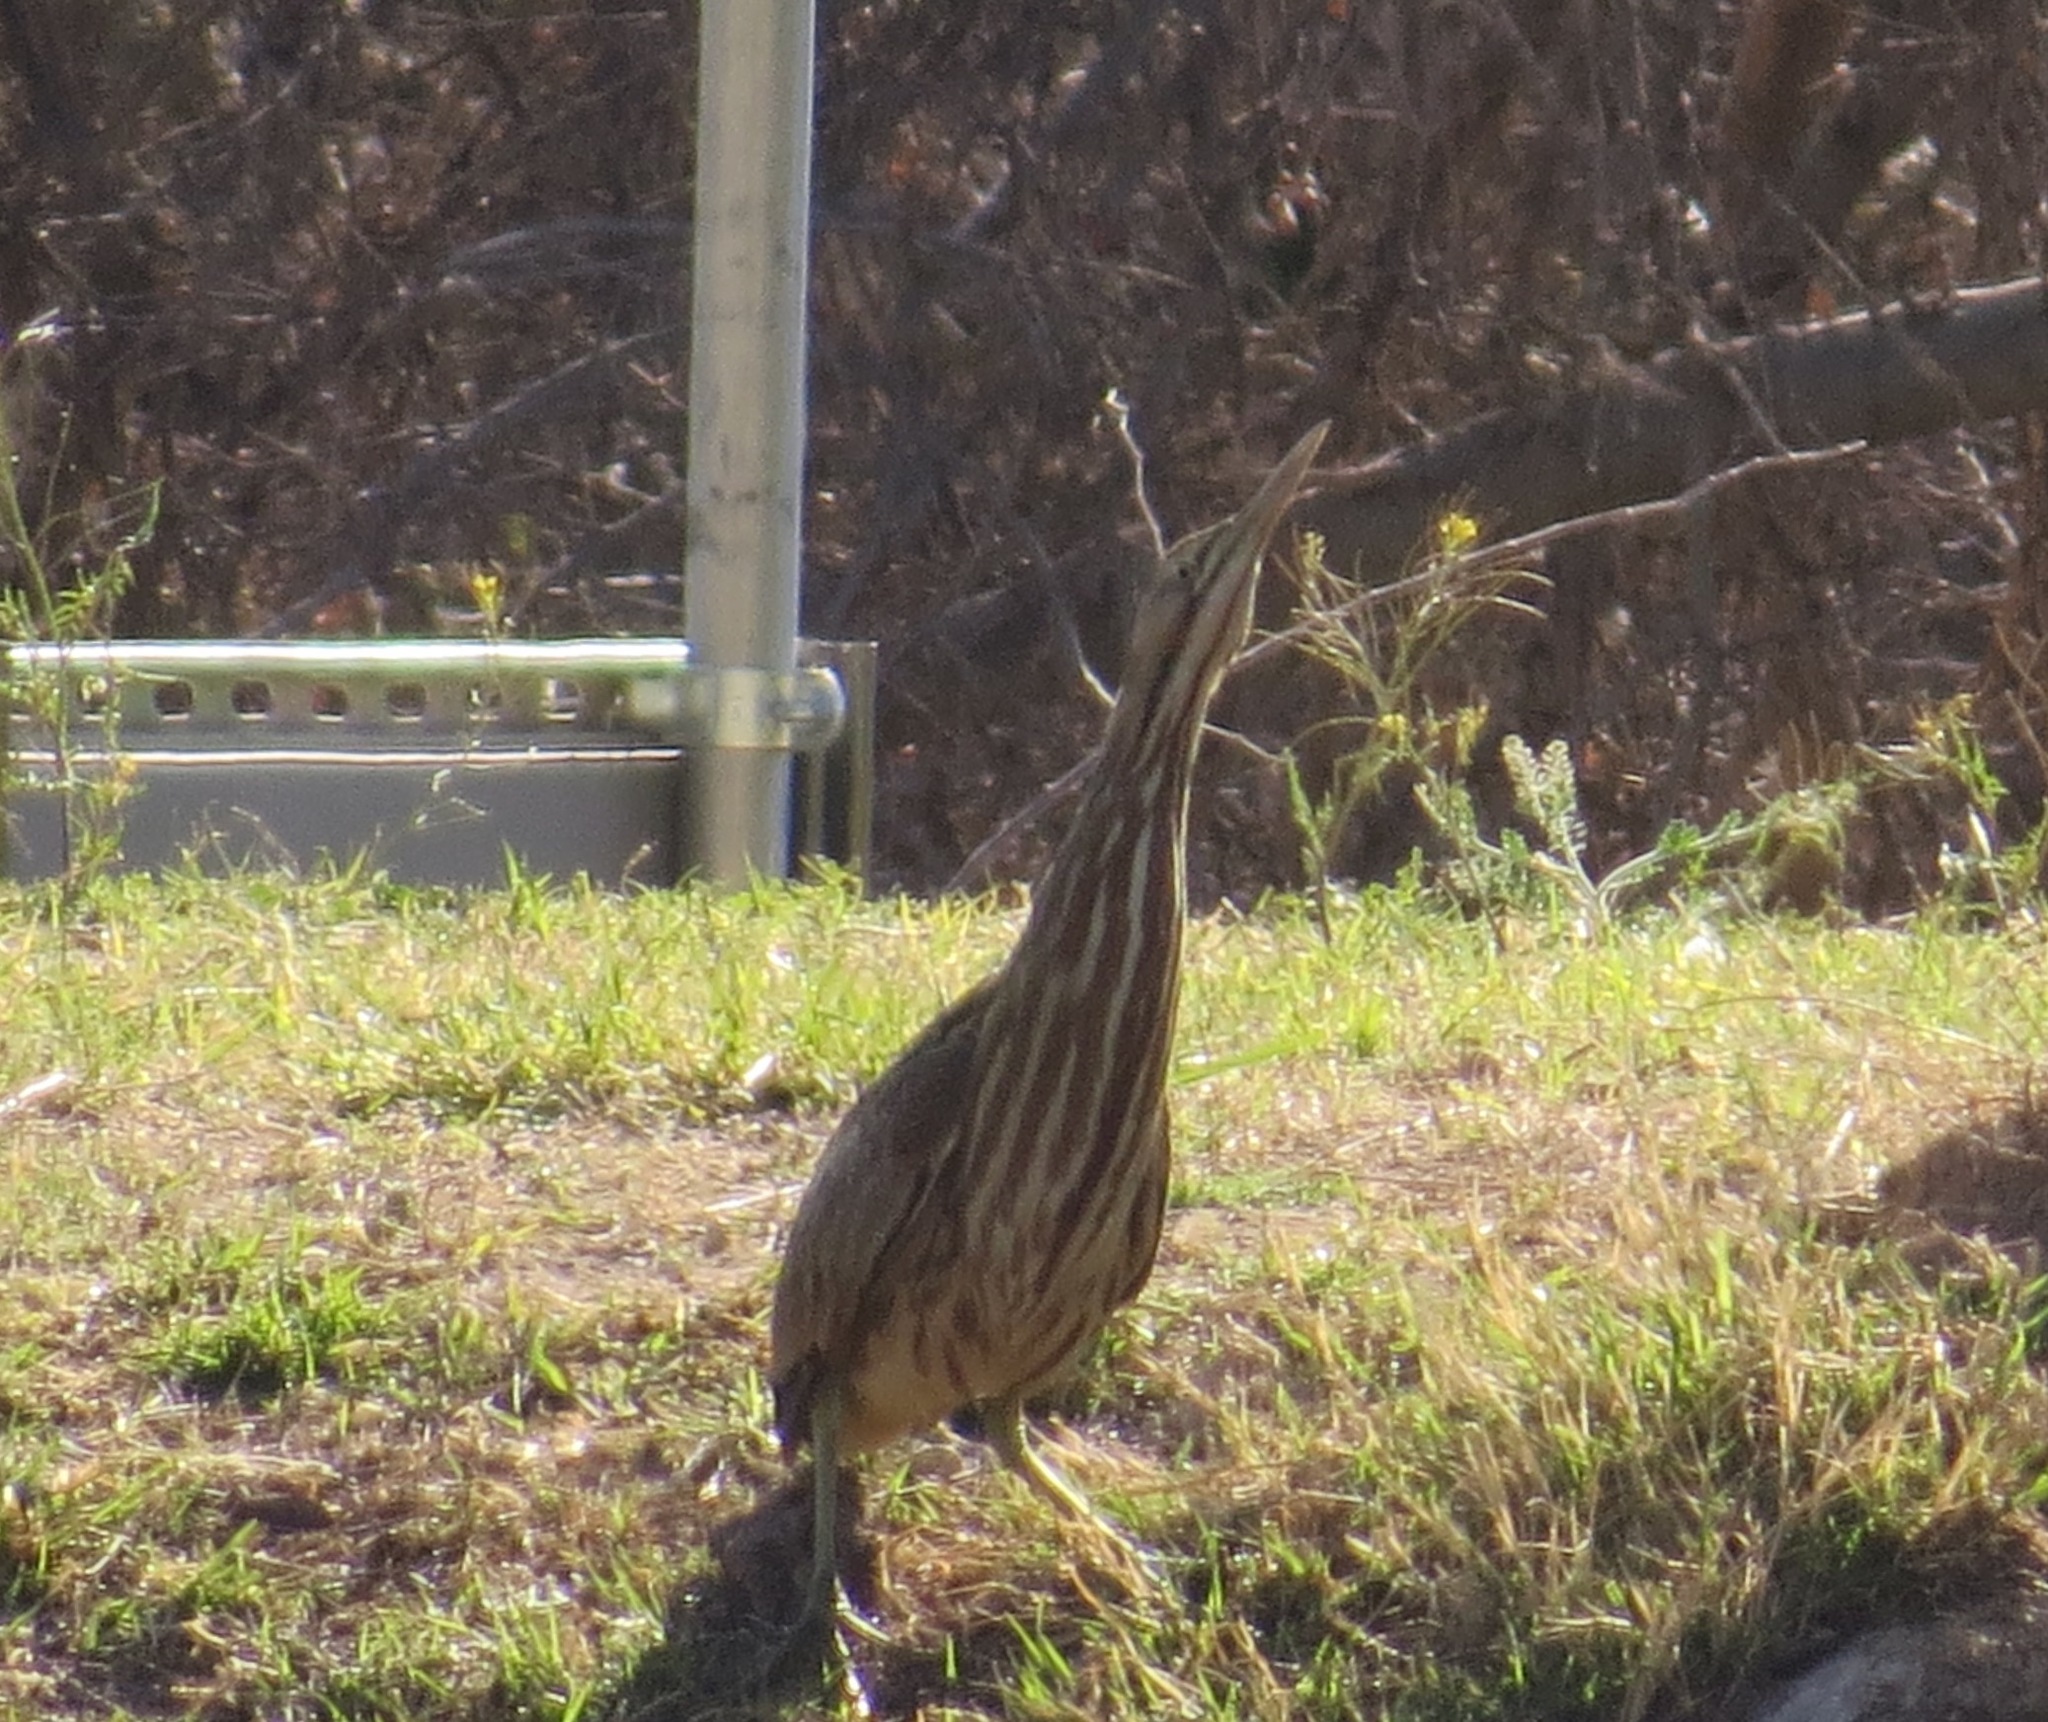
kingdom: Animalia
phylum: Chordata
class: Aves
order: Pelecaniformes
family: Ardeidae
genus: Botaurus
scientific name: Botaurus lentiginosus
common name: American bittern
